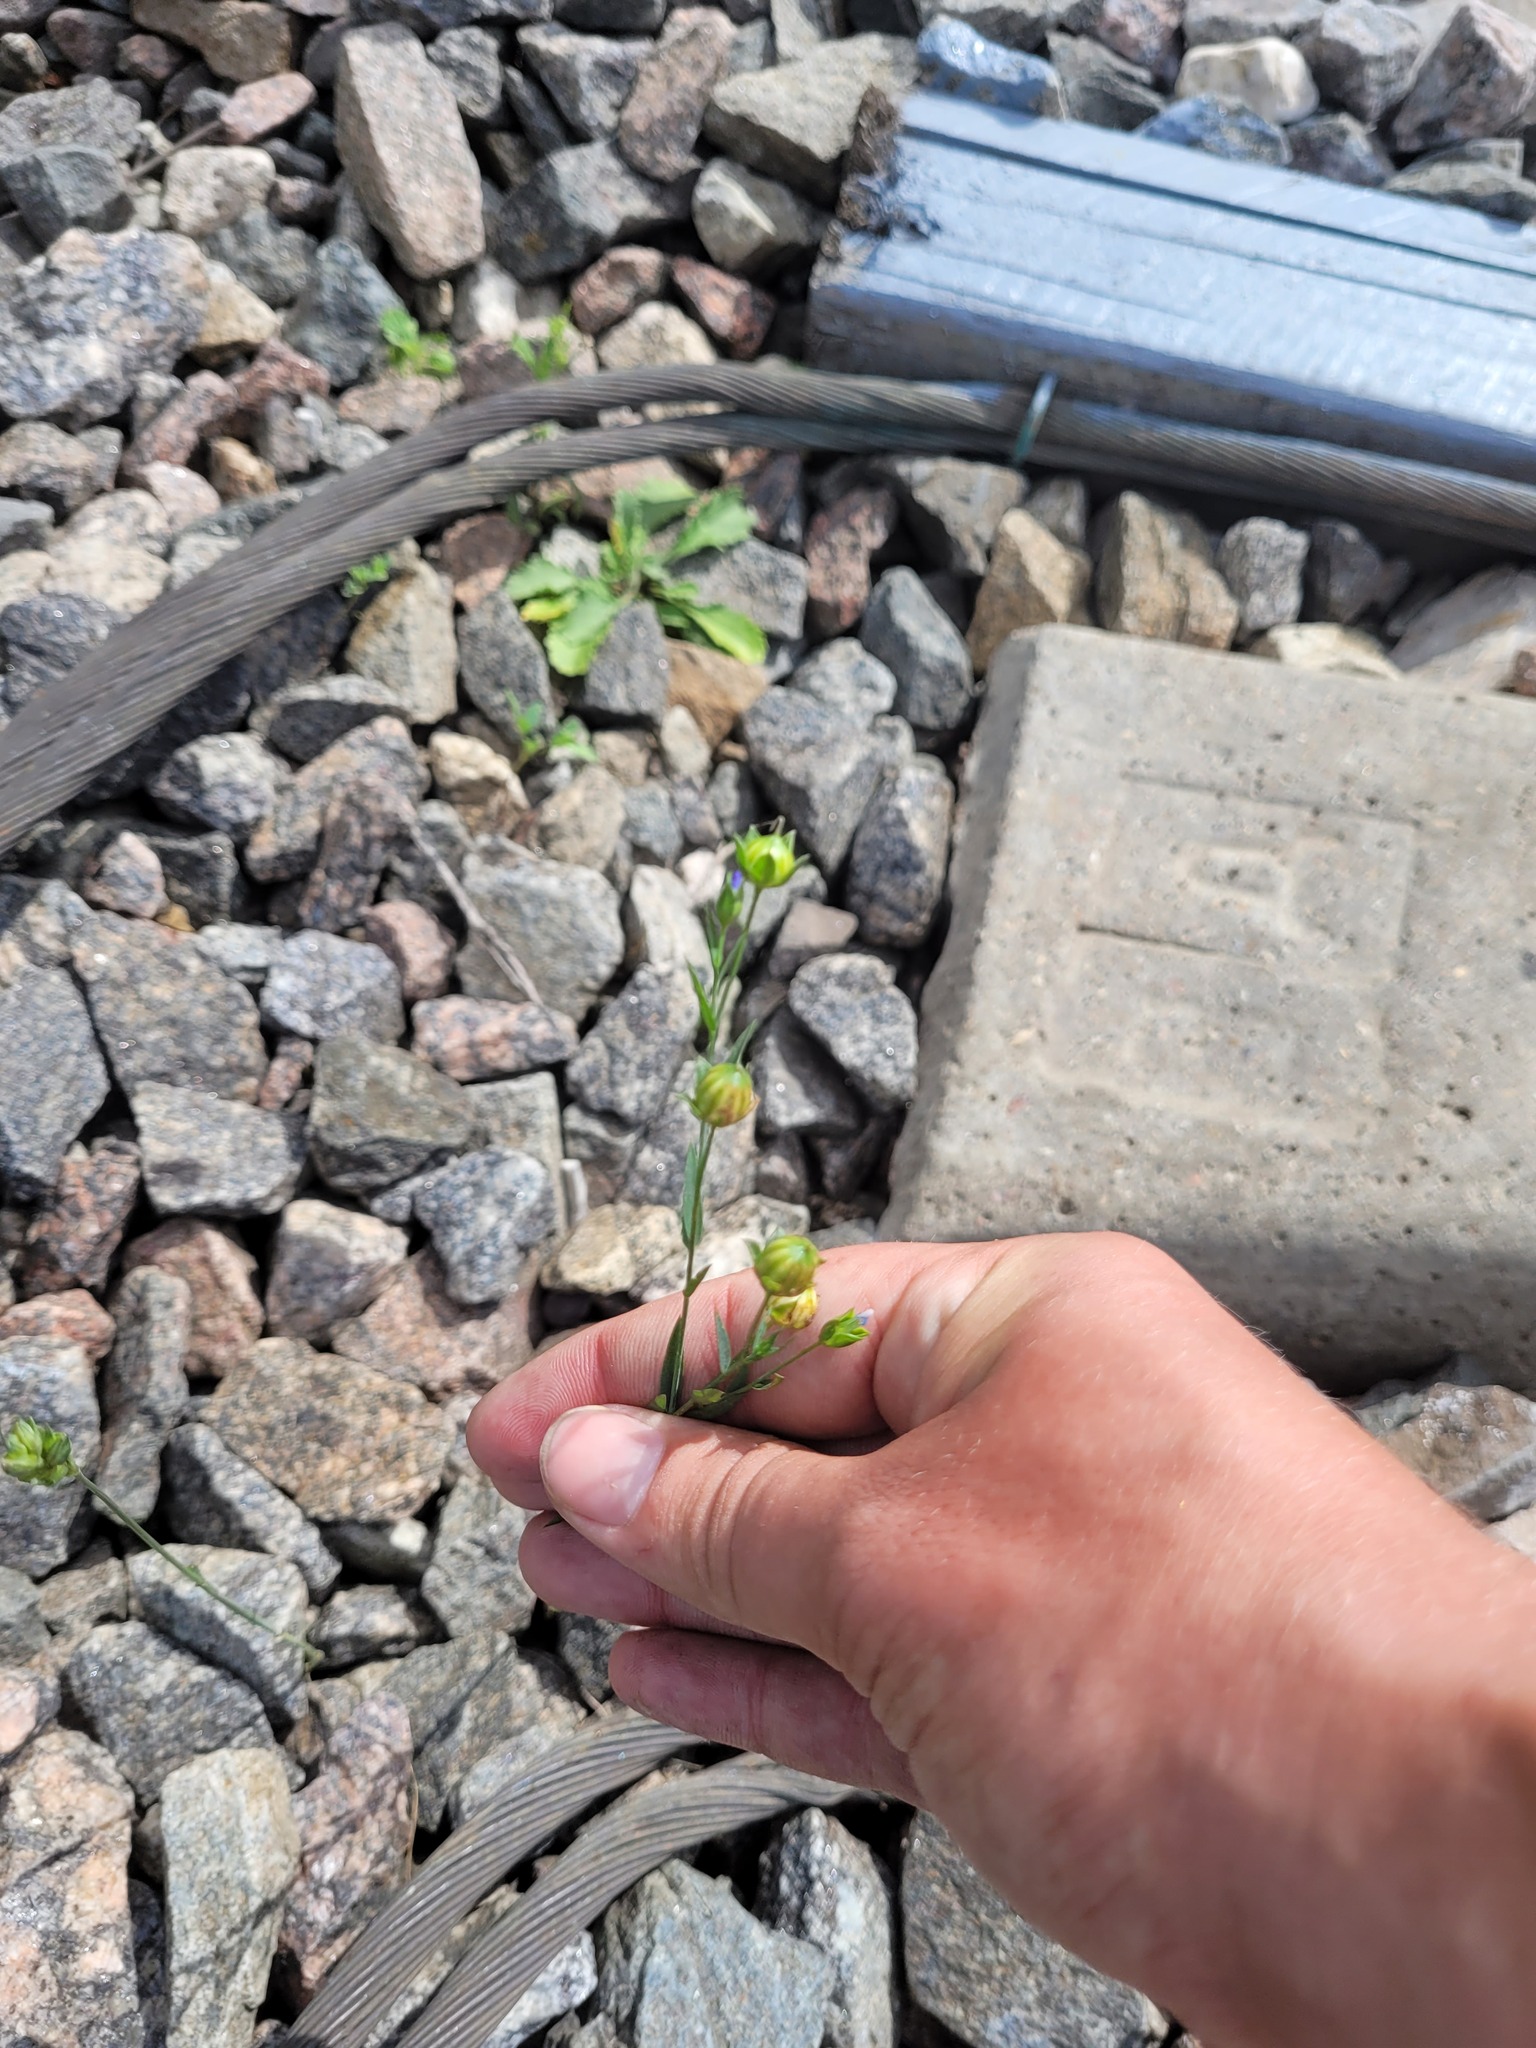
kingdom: Plantae
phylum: Tracheophyta
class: Magnoliopsida
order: Malpighiales
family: Linaceae
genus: Linum
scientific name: Linum usitatissimum
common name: Flax
